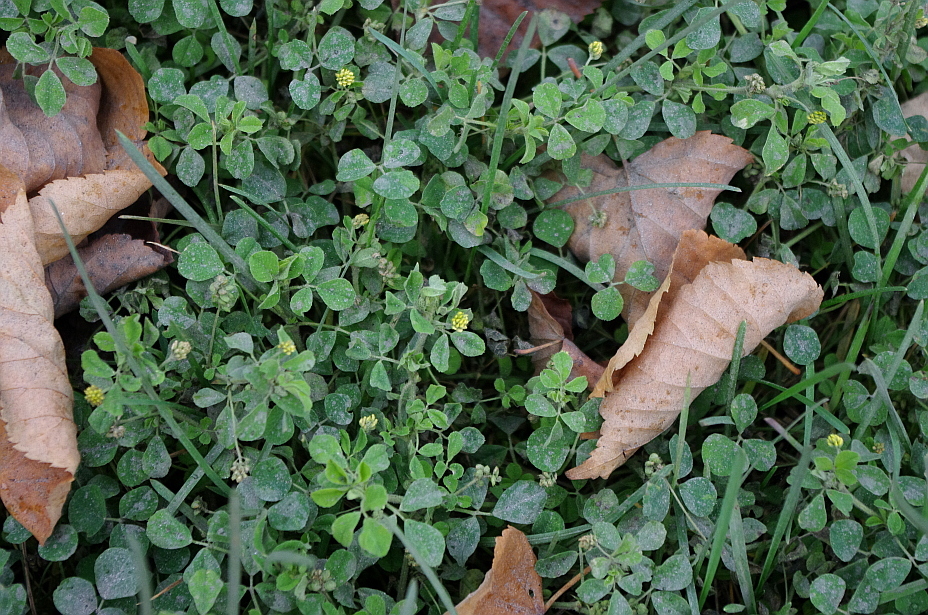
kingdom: Plantae
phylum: Tracheophyta
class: Magnoliopsida
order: Fabales
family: Fabaceae
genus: Medicago
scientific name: Medicago lupulina
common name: Black medick
